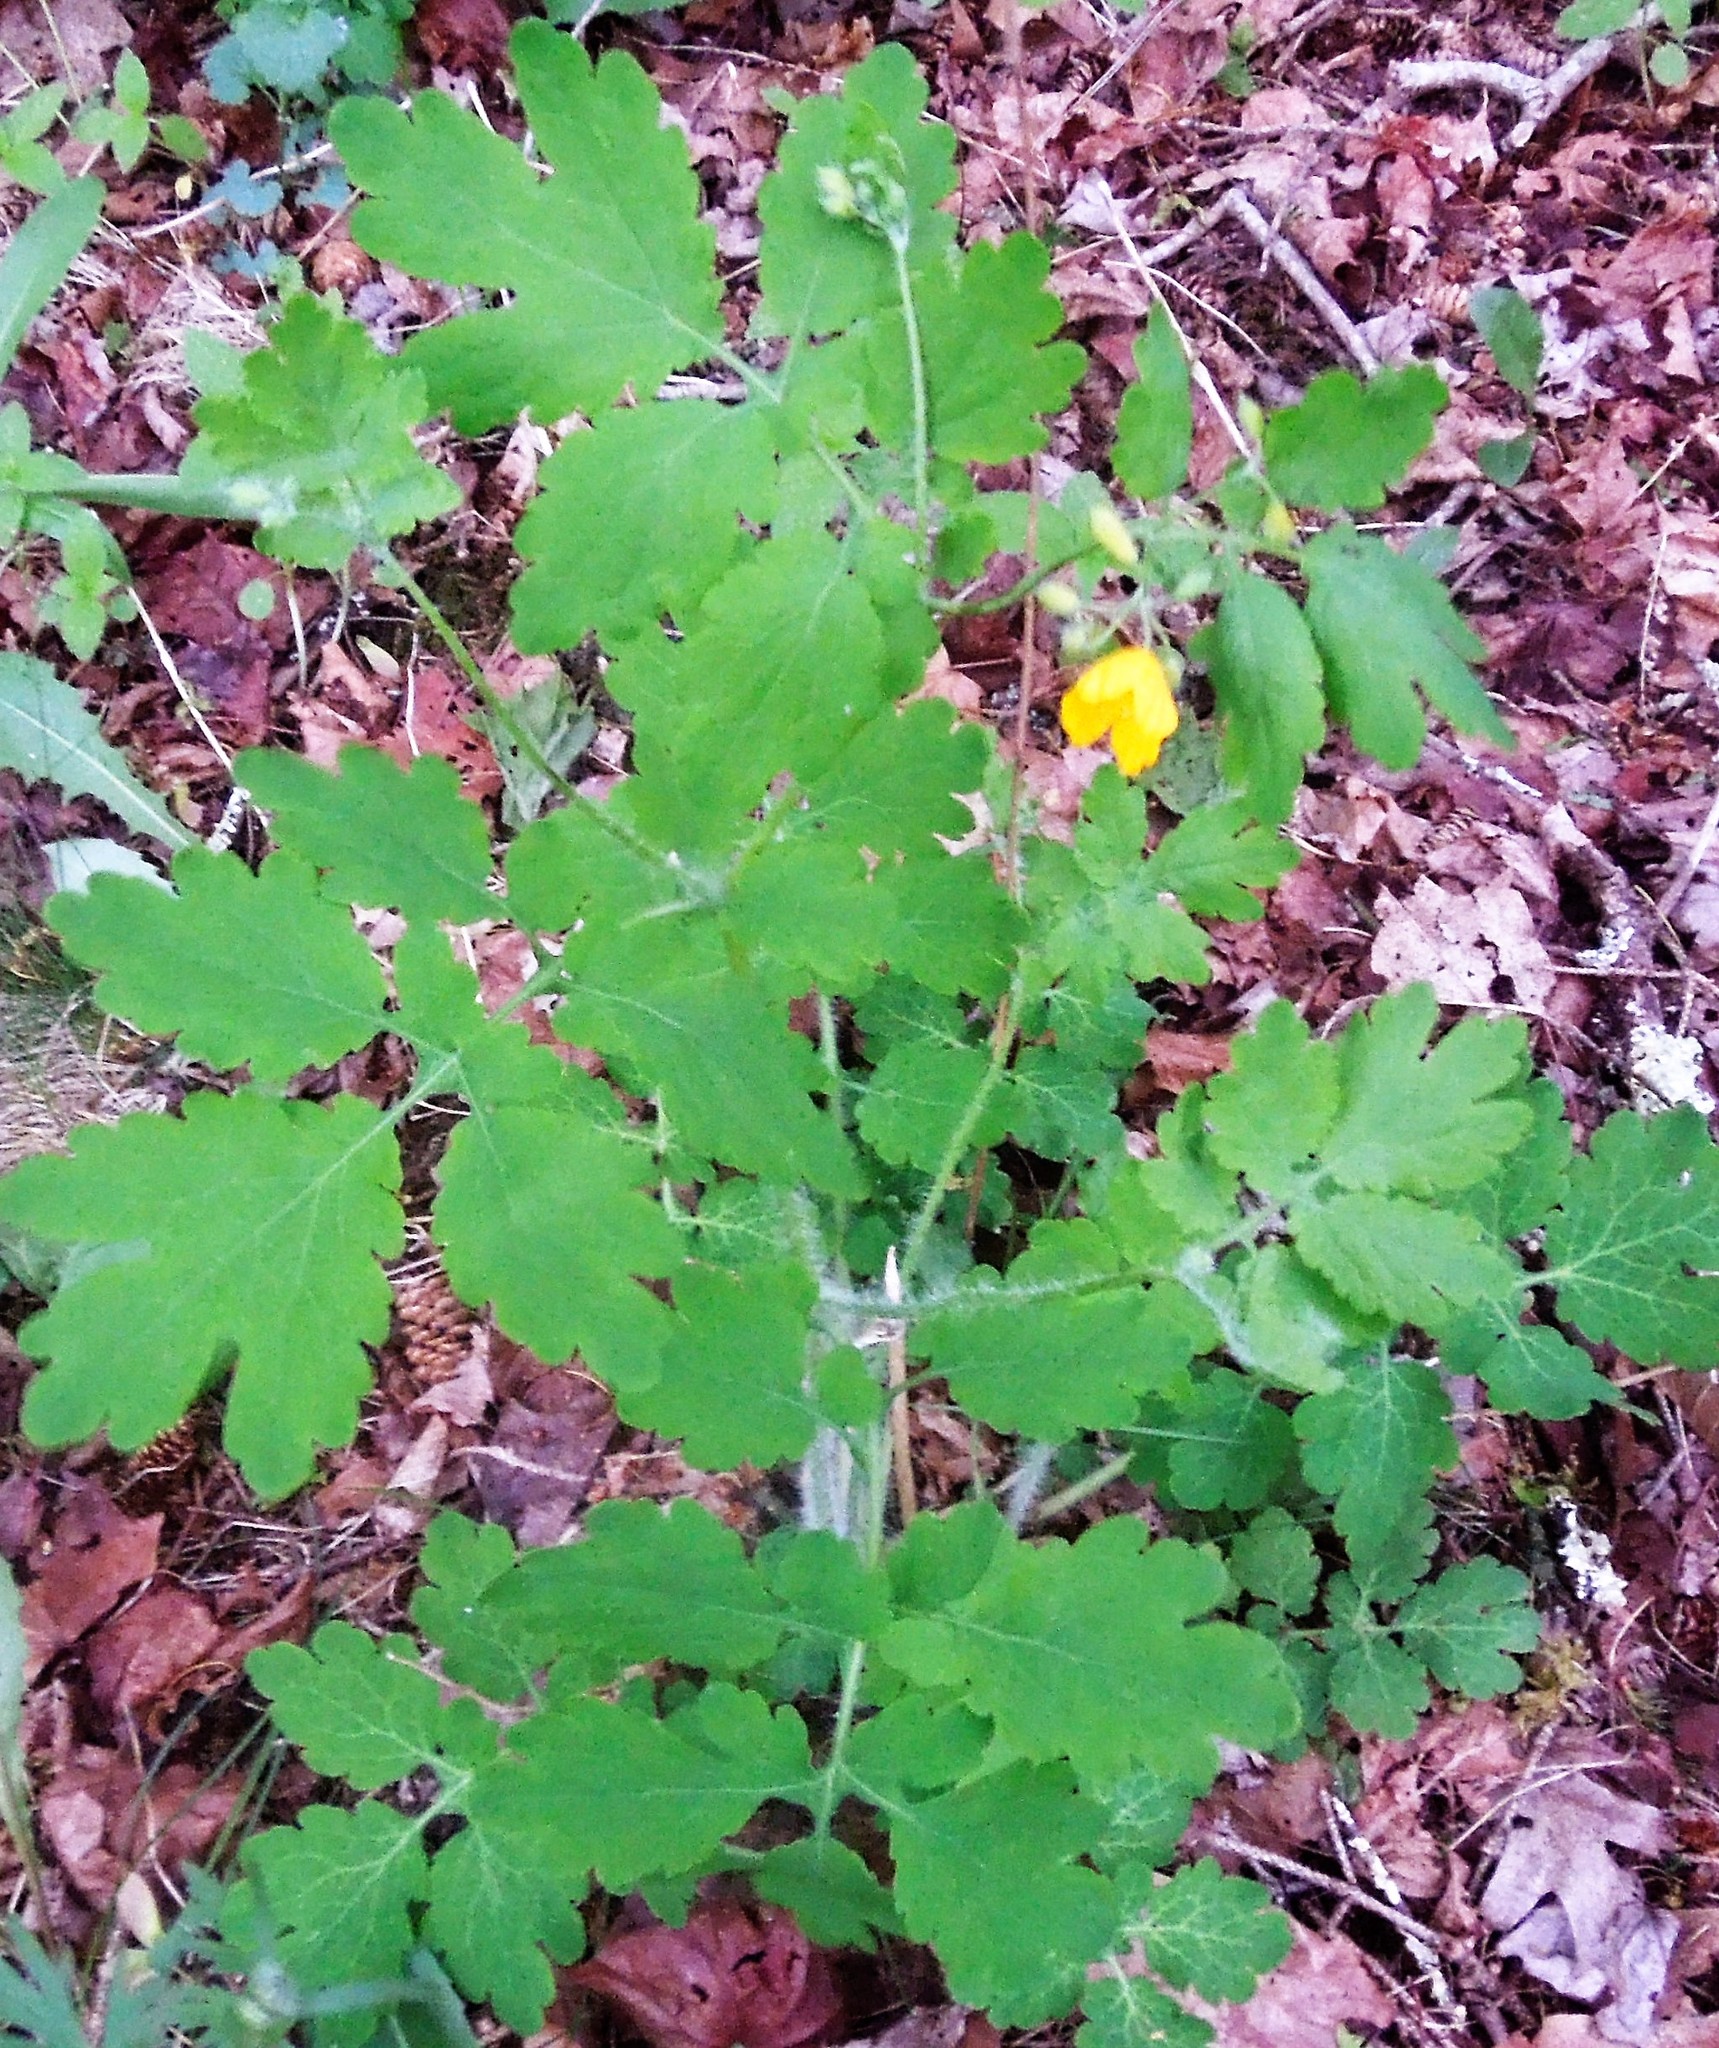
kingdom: Plantae
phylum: Tracheophyta
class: Magnoliopsida
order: Ranunculales
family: Papaveraceae
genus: Chelidonium
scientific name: Chelidonium majus
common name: Greater celandine
